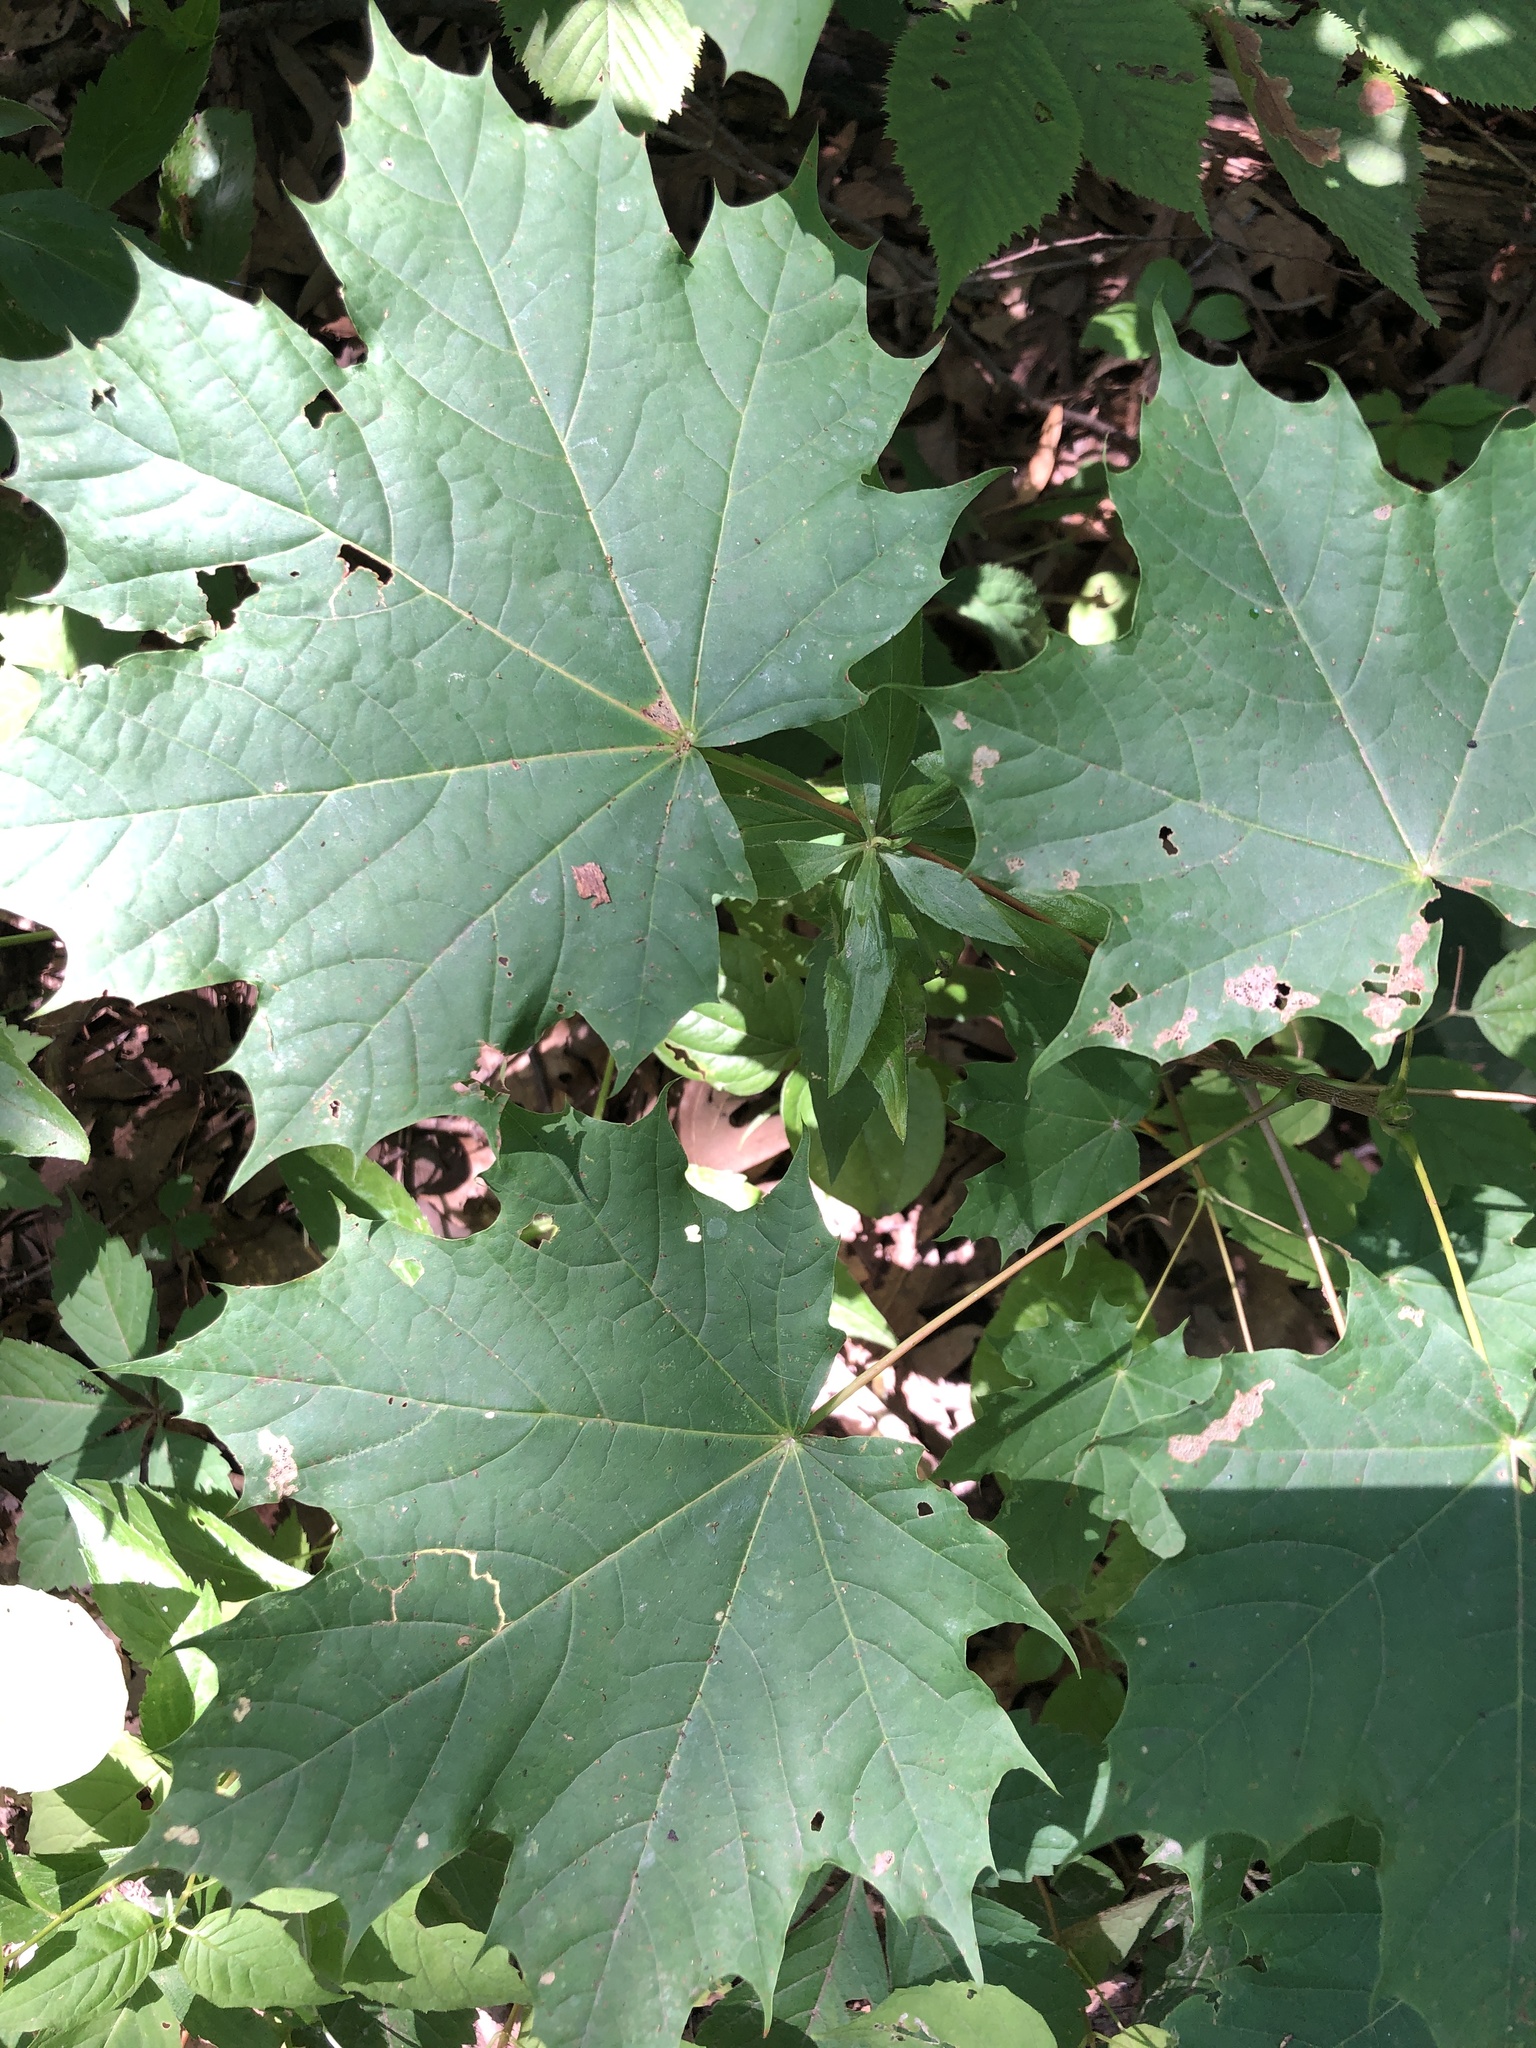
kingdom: Plantae
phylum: Tracheophyta
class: Magnoliopsida
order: Sapindales
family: Sapindaceae
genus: Acer
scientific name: Acer platanoides
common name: Norway maple
